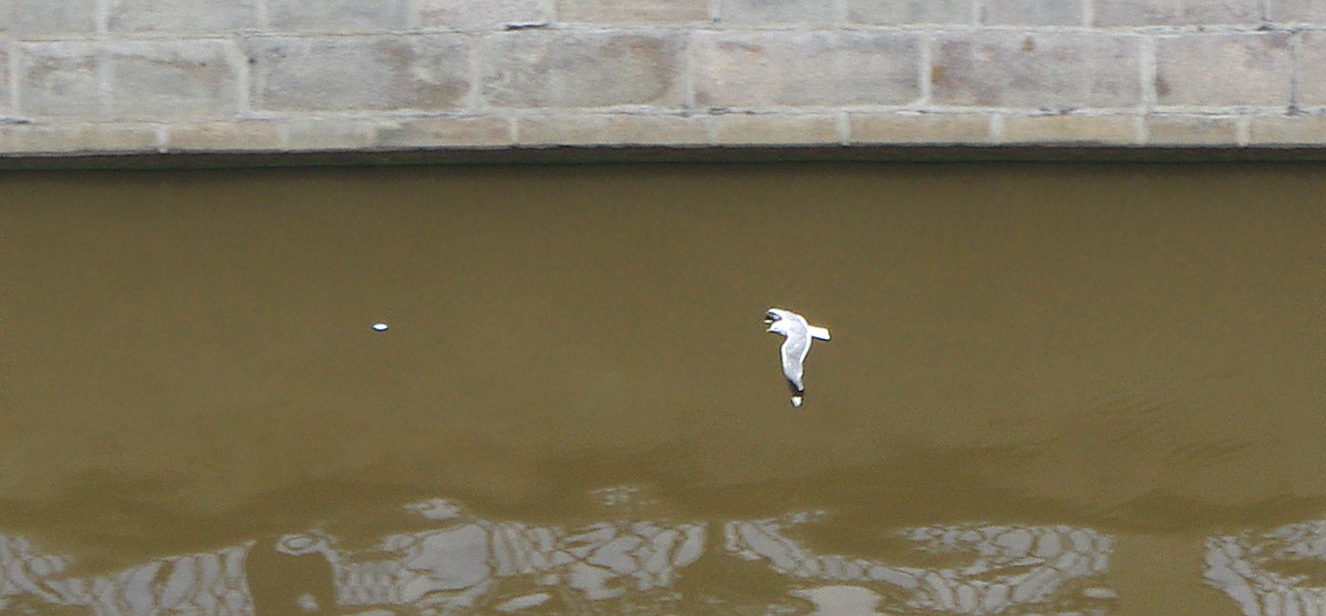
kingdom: Animalia
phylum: Chordata
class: Aves
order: Charadriiformes
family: Laridae
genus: Larus
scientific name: Larus canus
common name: Mew gull
